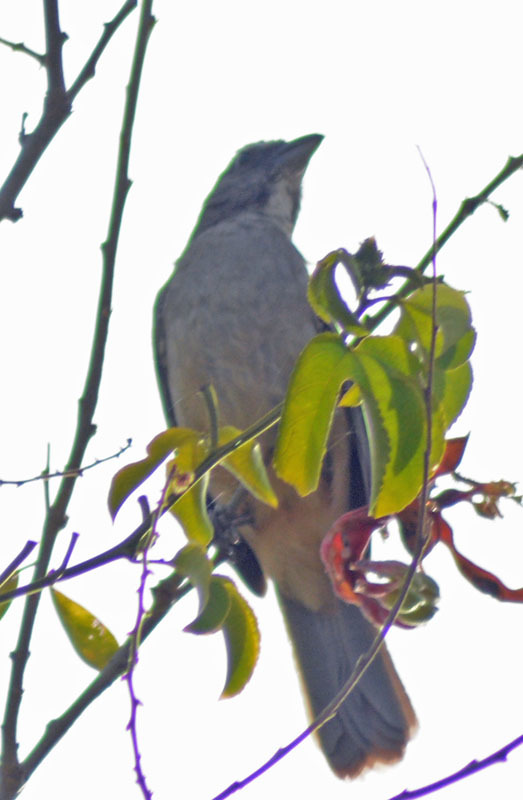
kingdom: Animalia
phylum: Chordata
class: Aves
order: Passeriformes
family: Thraupidae
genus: Saltator
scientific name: Saltator grandis
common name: Cinnamon-bellied saltator
